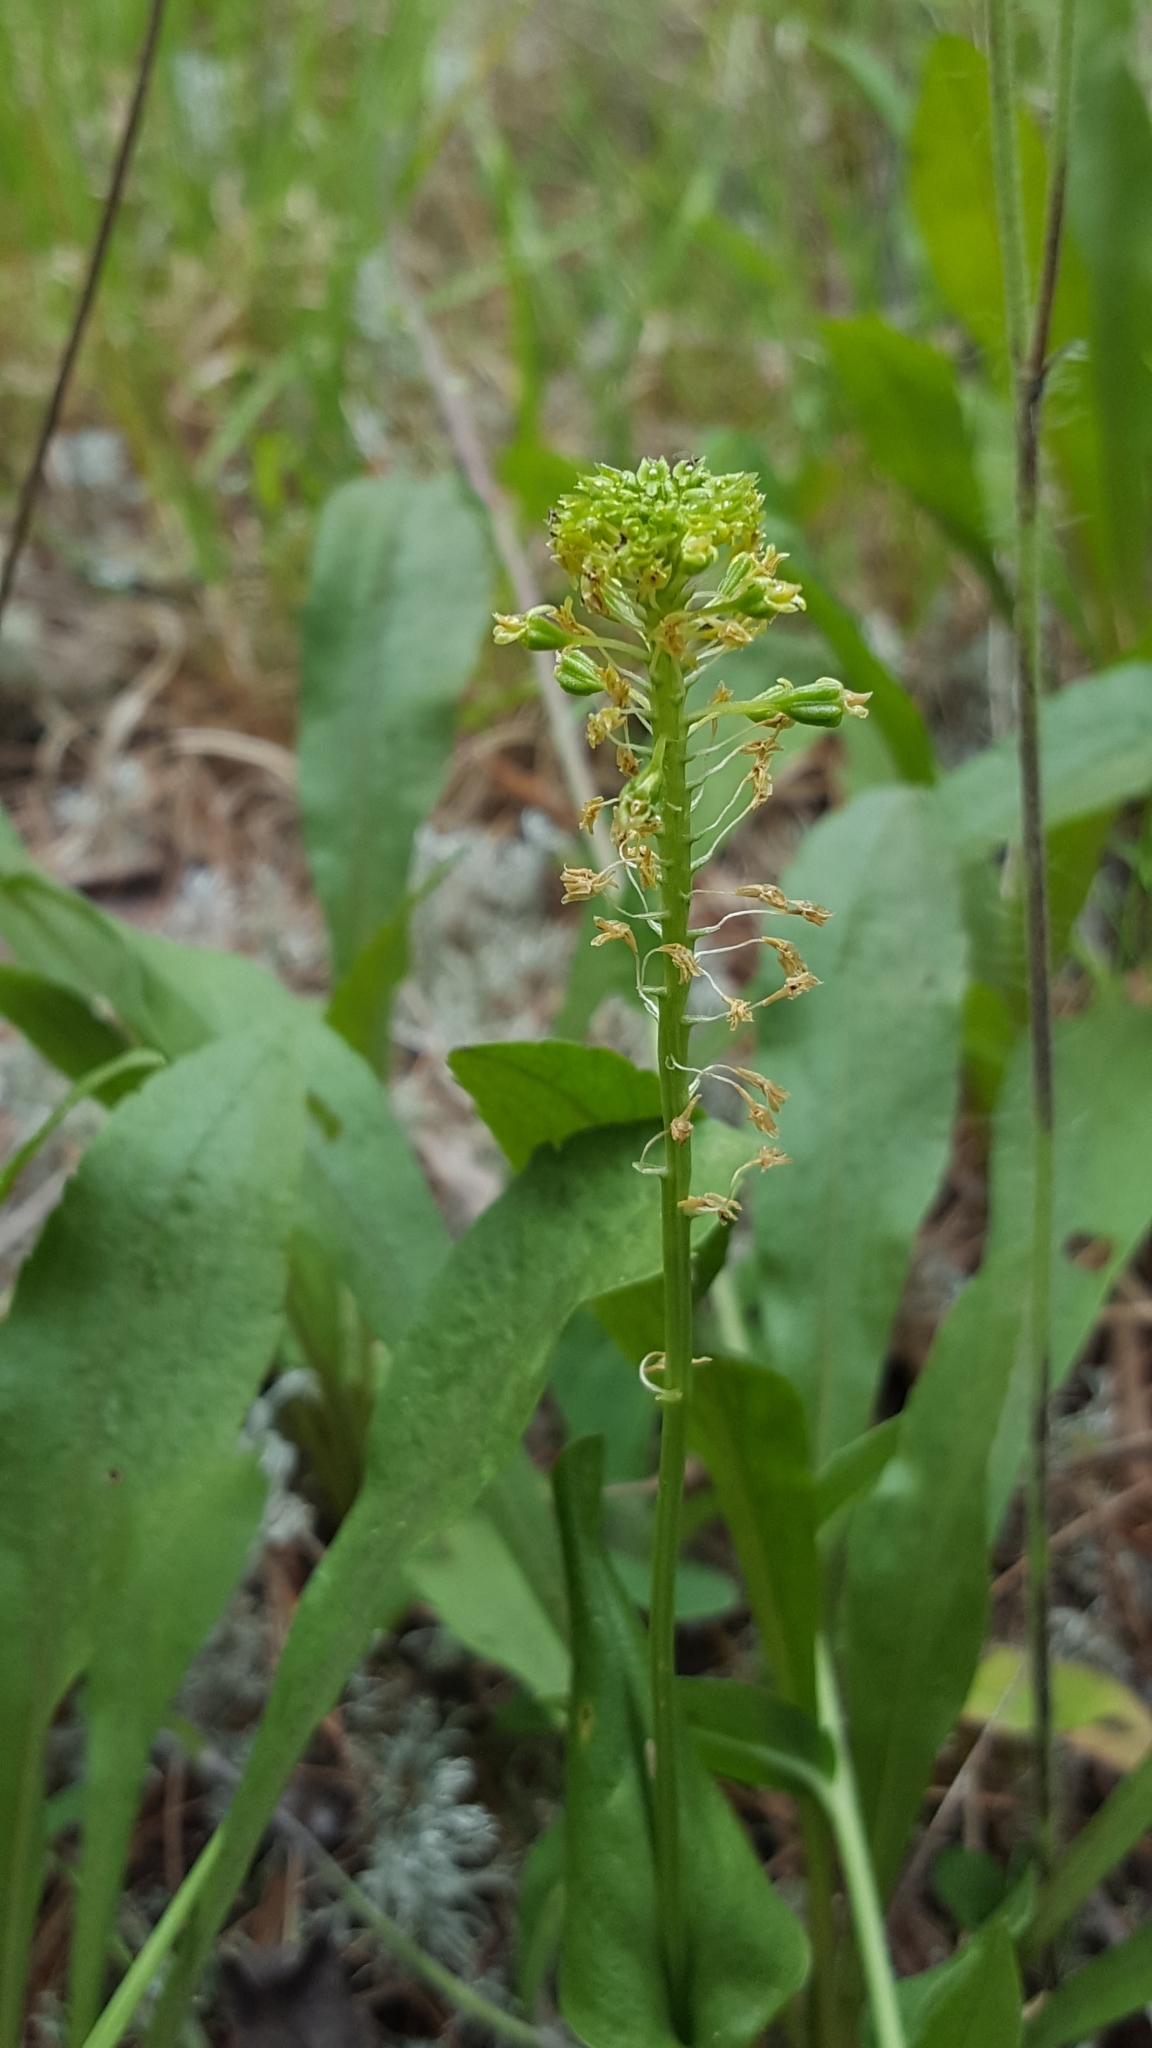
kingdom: Plantae
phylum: Tracheophyta
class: Liliopsida
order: Asparagales
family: Orchidaceae
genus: Malaxis
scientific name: Malaxis unifolia
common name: Green adder's-mouth
